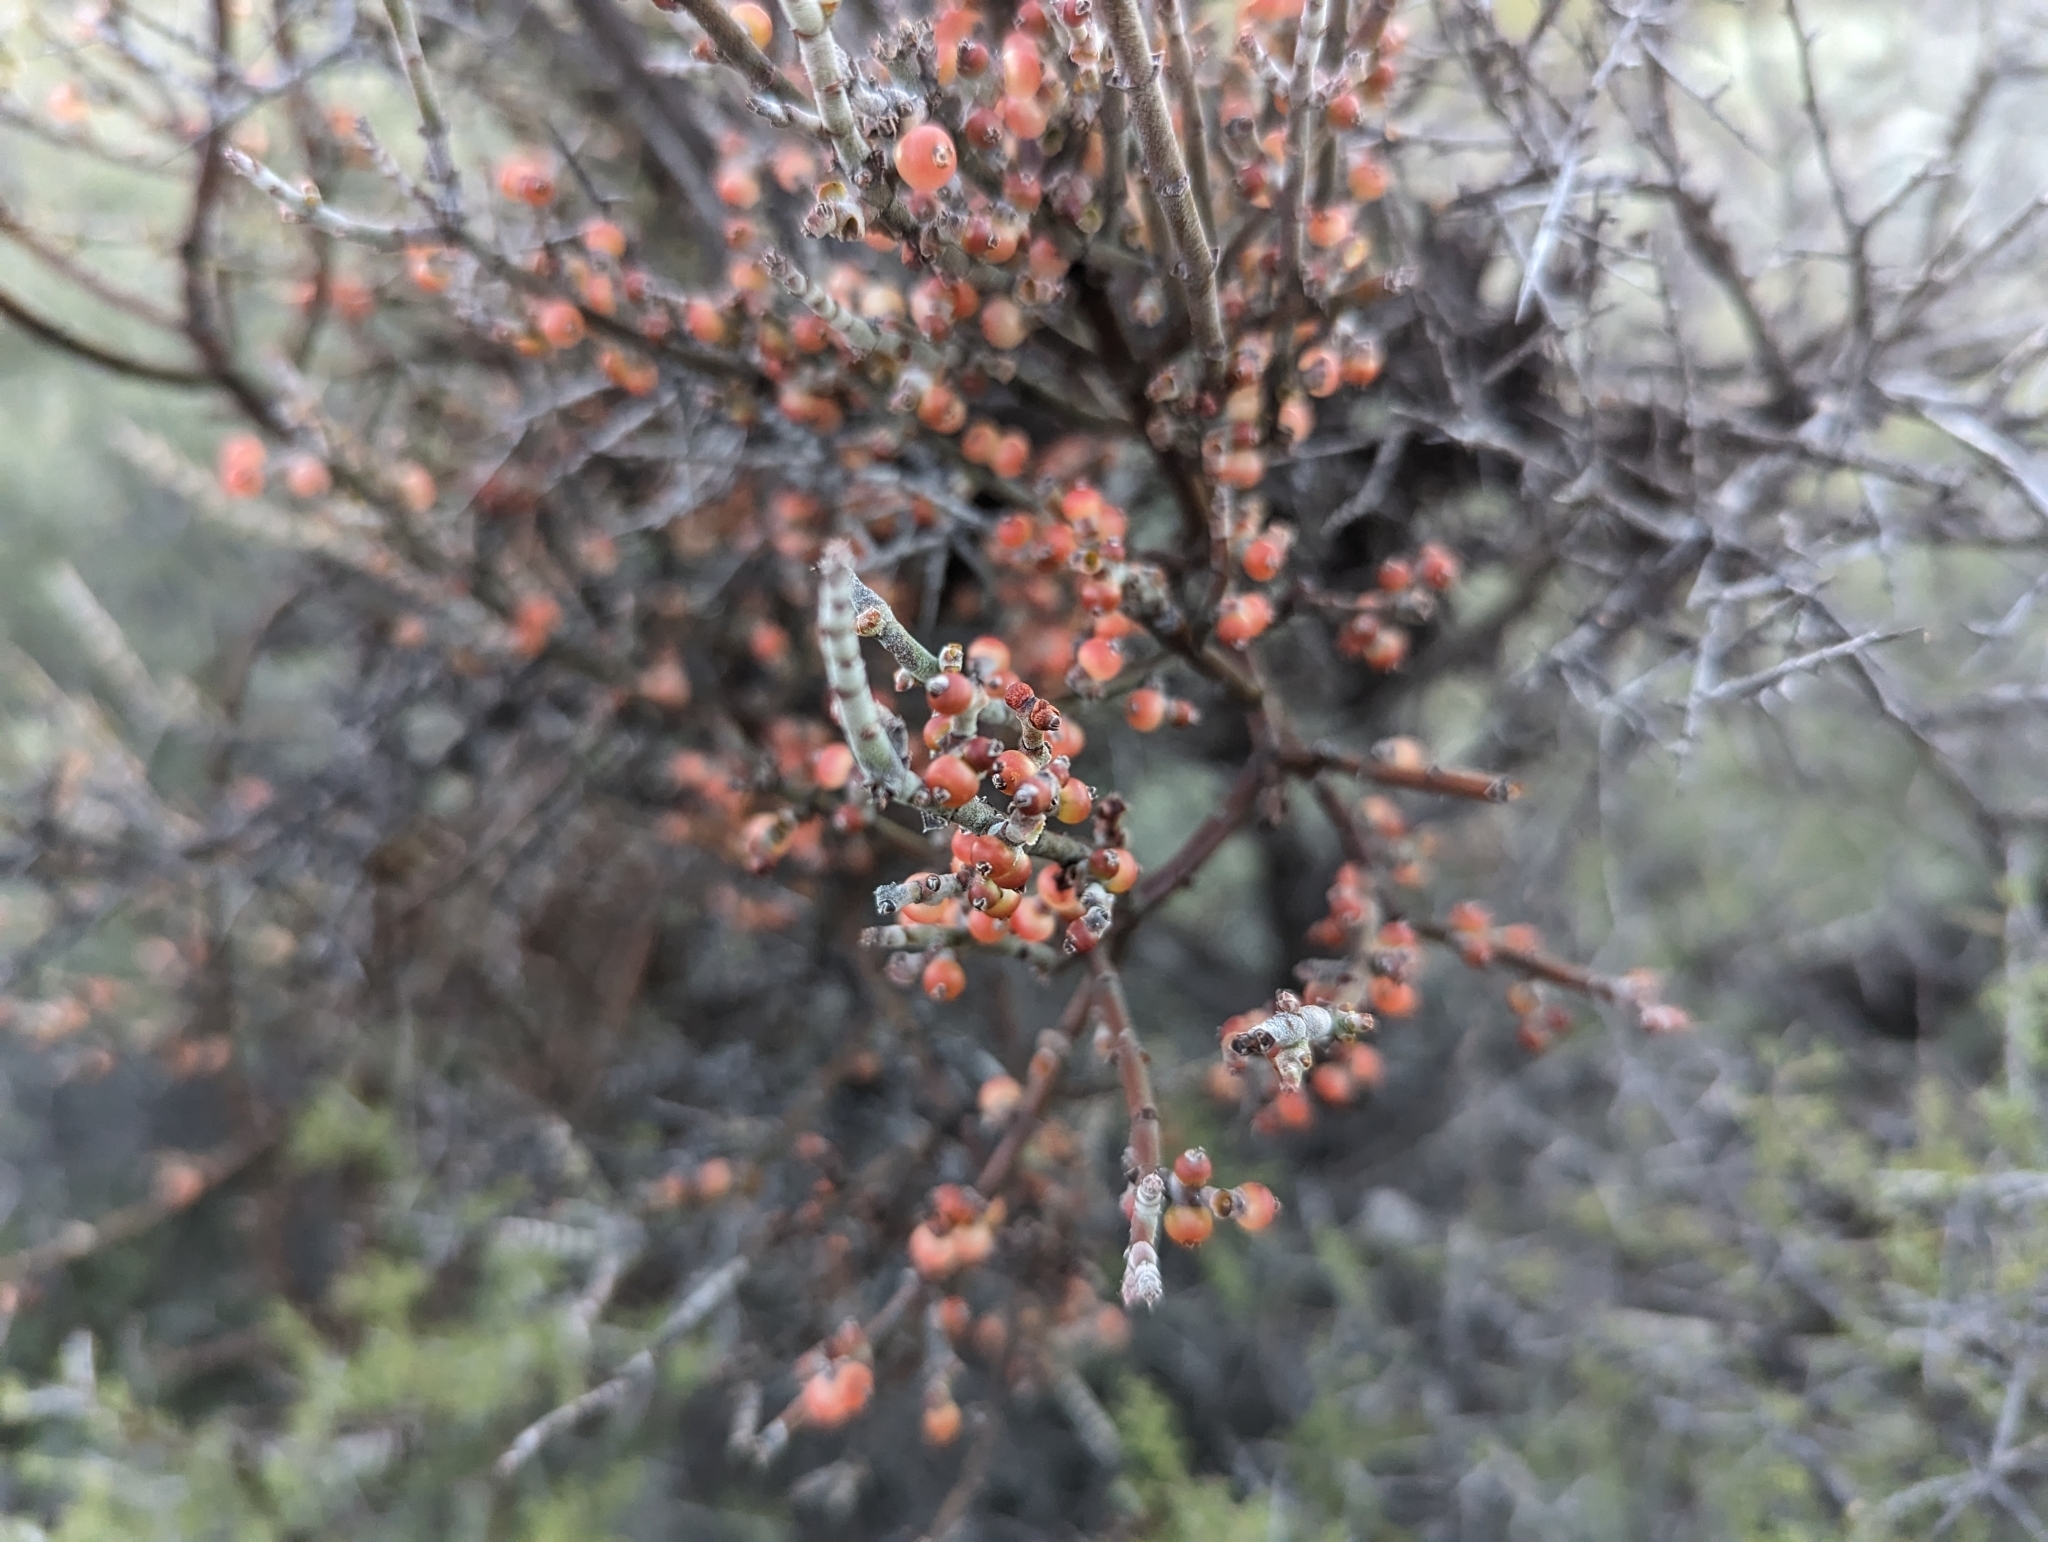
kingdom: Plantae
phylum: Tracheophyta
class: Magnoliopsida
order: Santalales
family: Viscaceae
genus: Phoradendron
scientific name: Phoradendron californicum
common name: Acacia mistletoe
